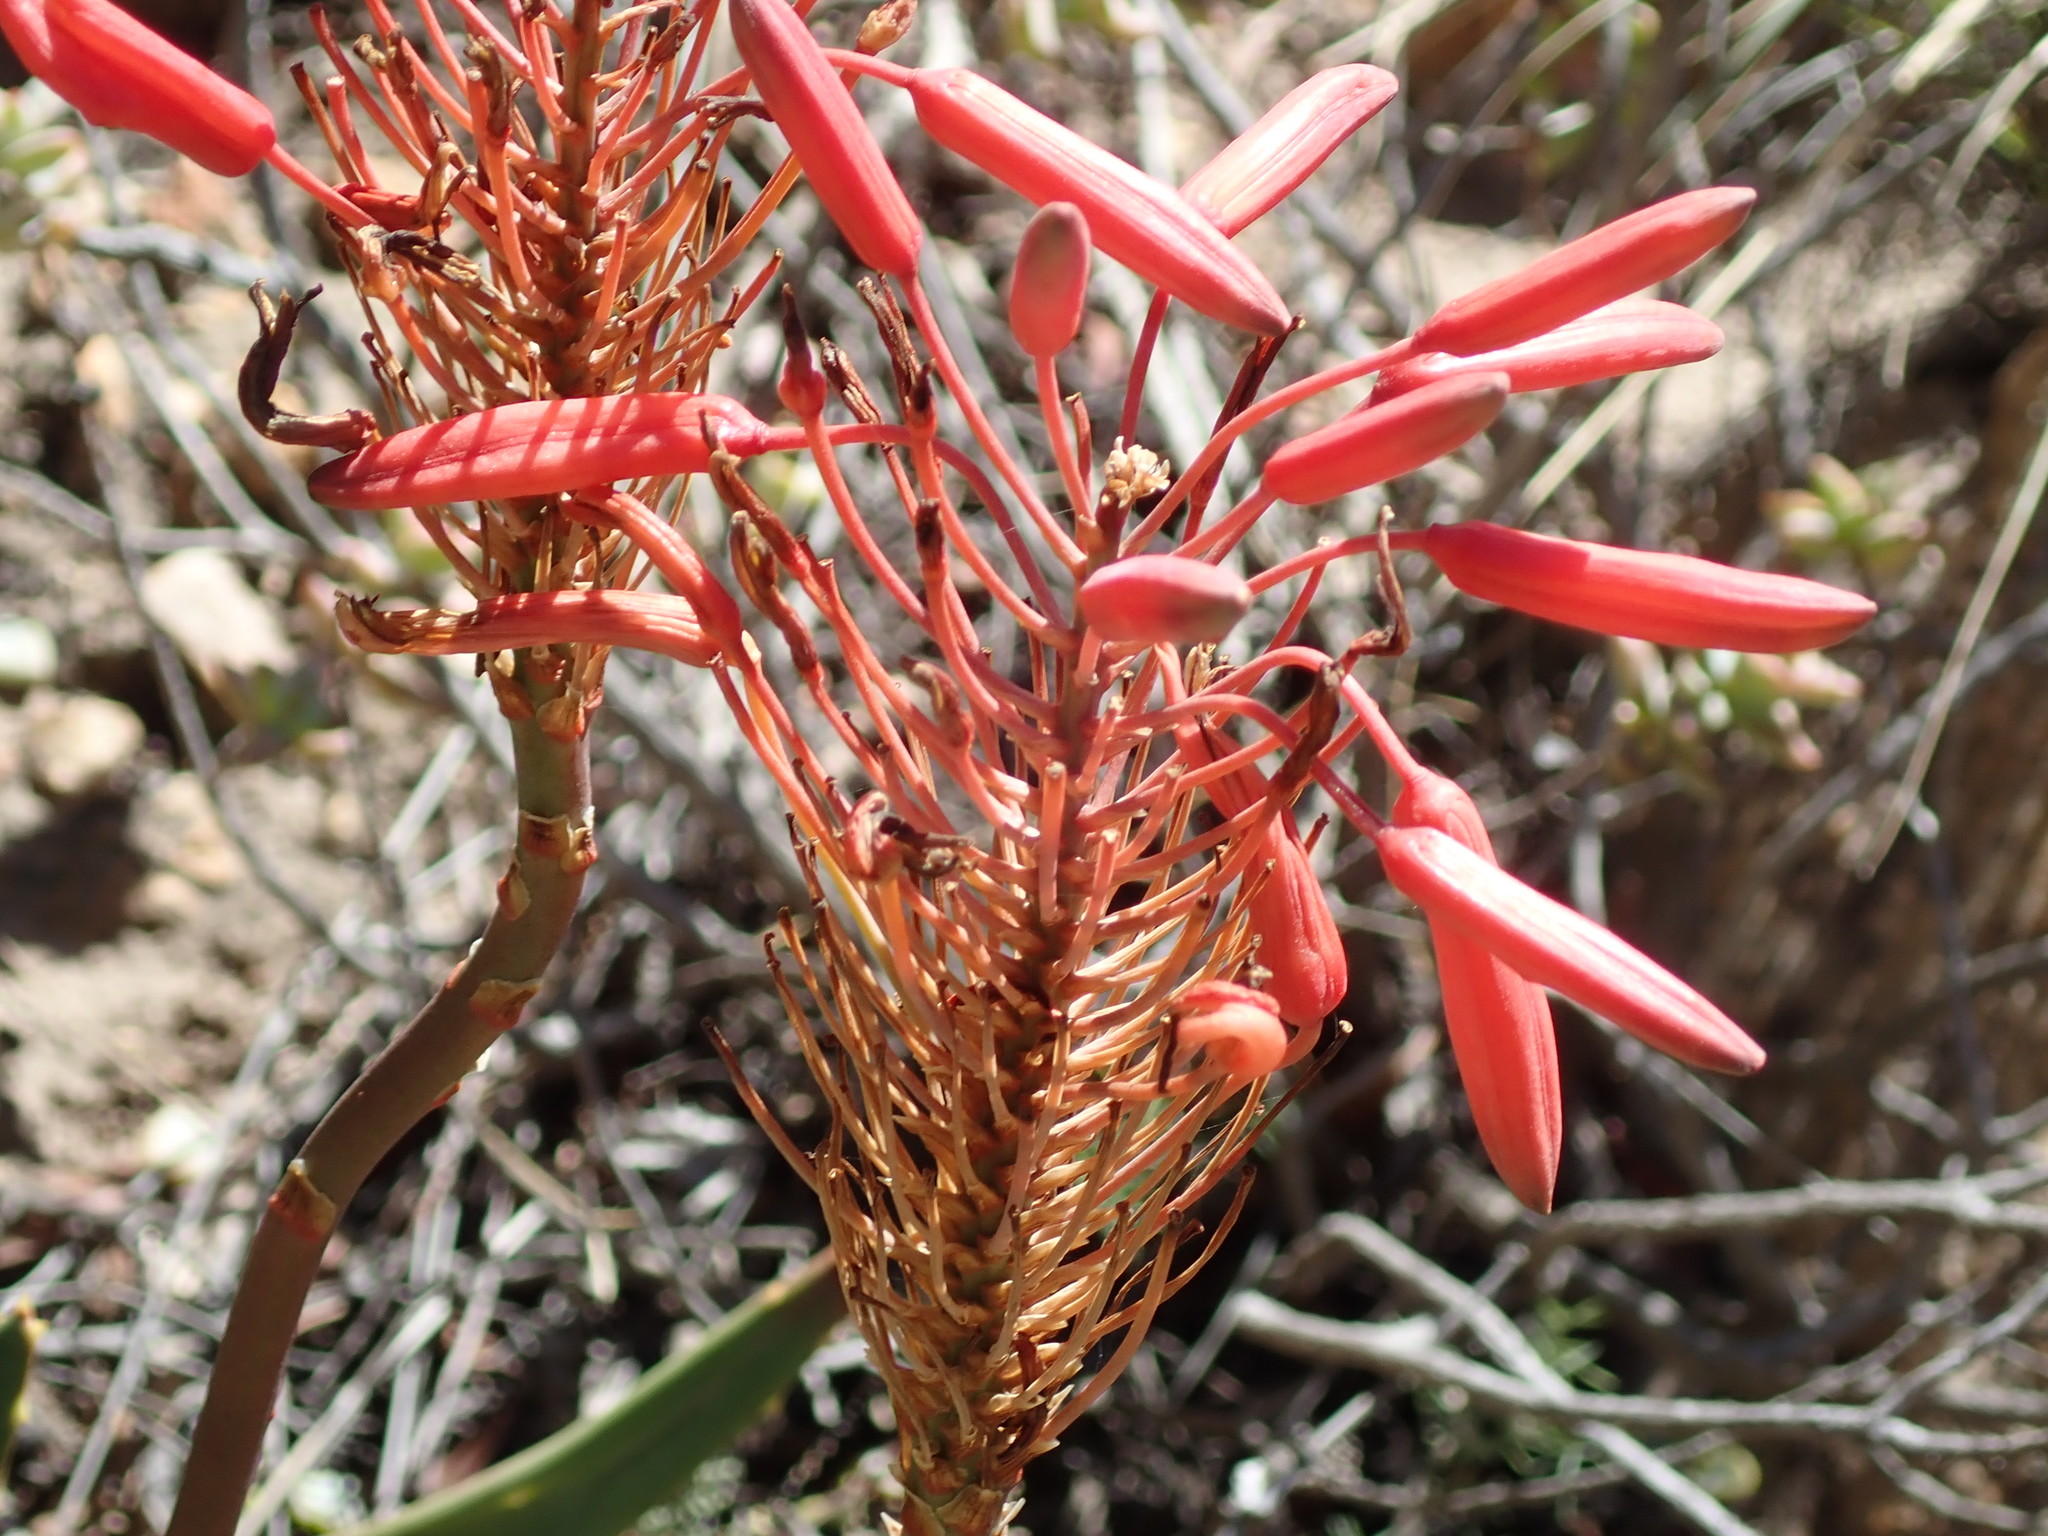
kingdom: Plantae
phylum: Tracheophyta
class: Liliopsida
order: Asparagales
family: Asphodelaceae
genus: Aloe
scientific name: Aloe comptonii
